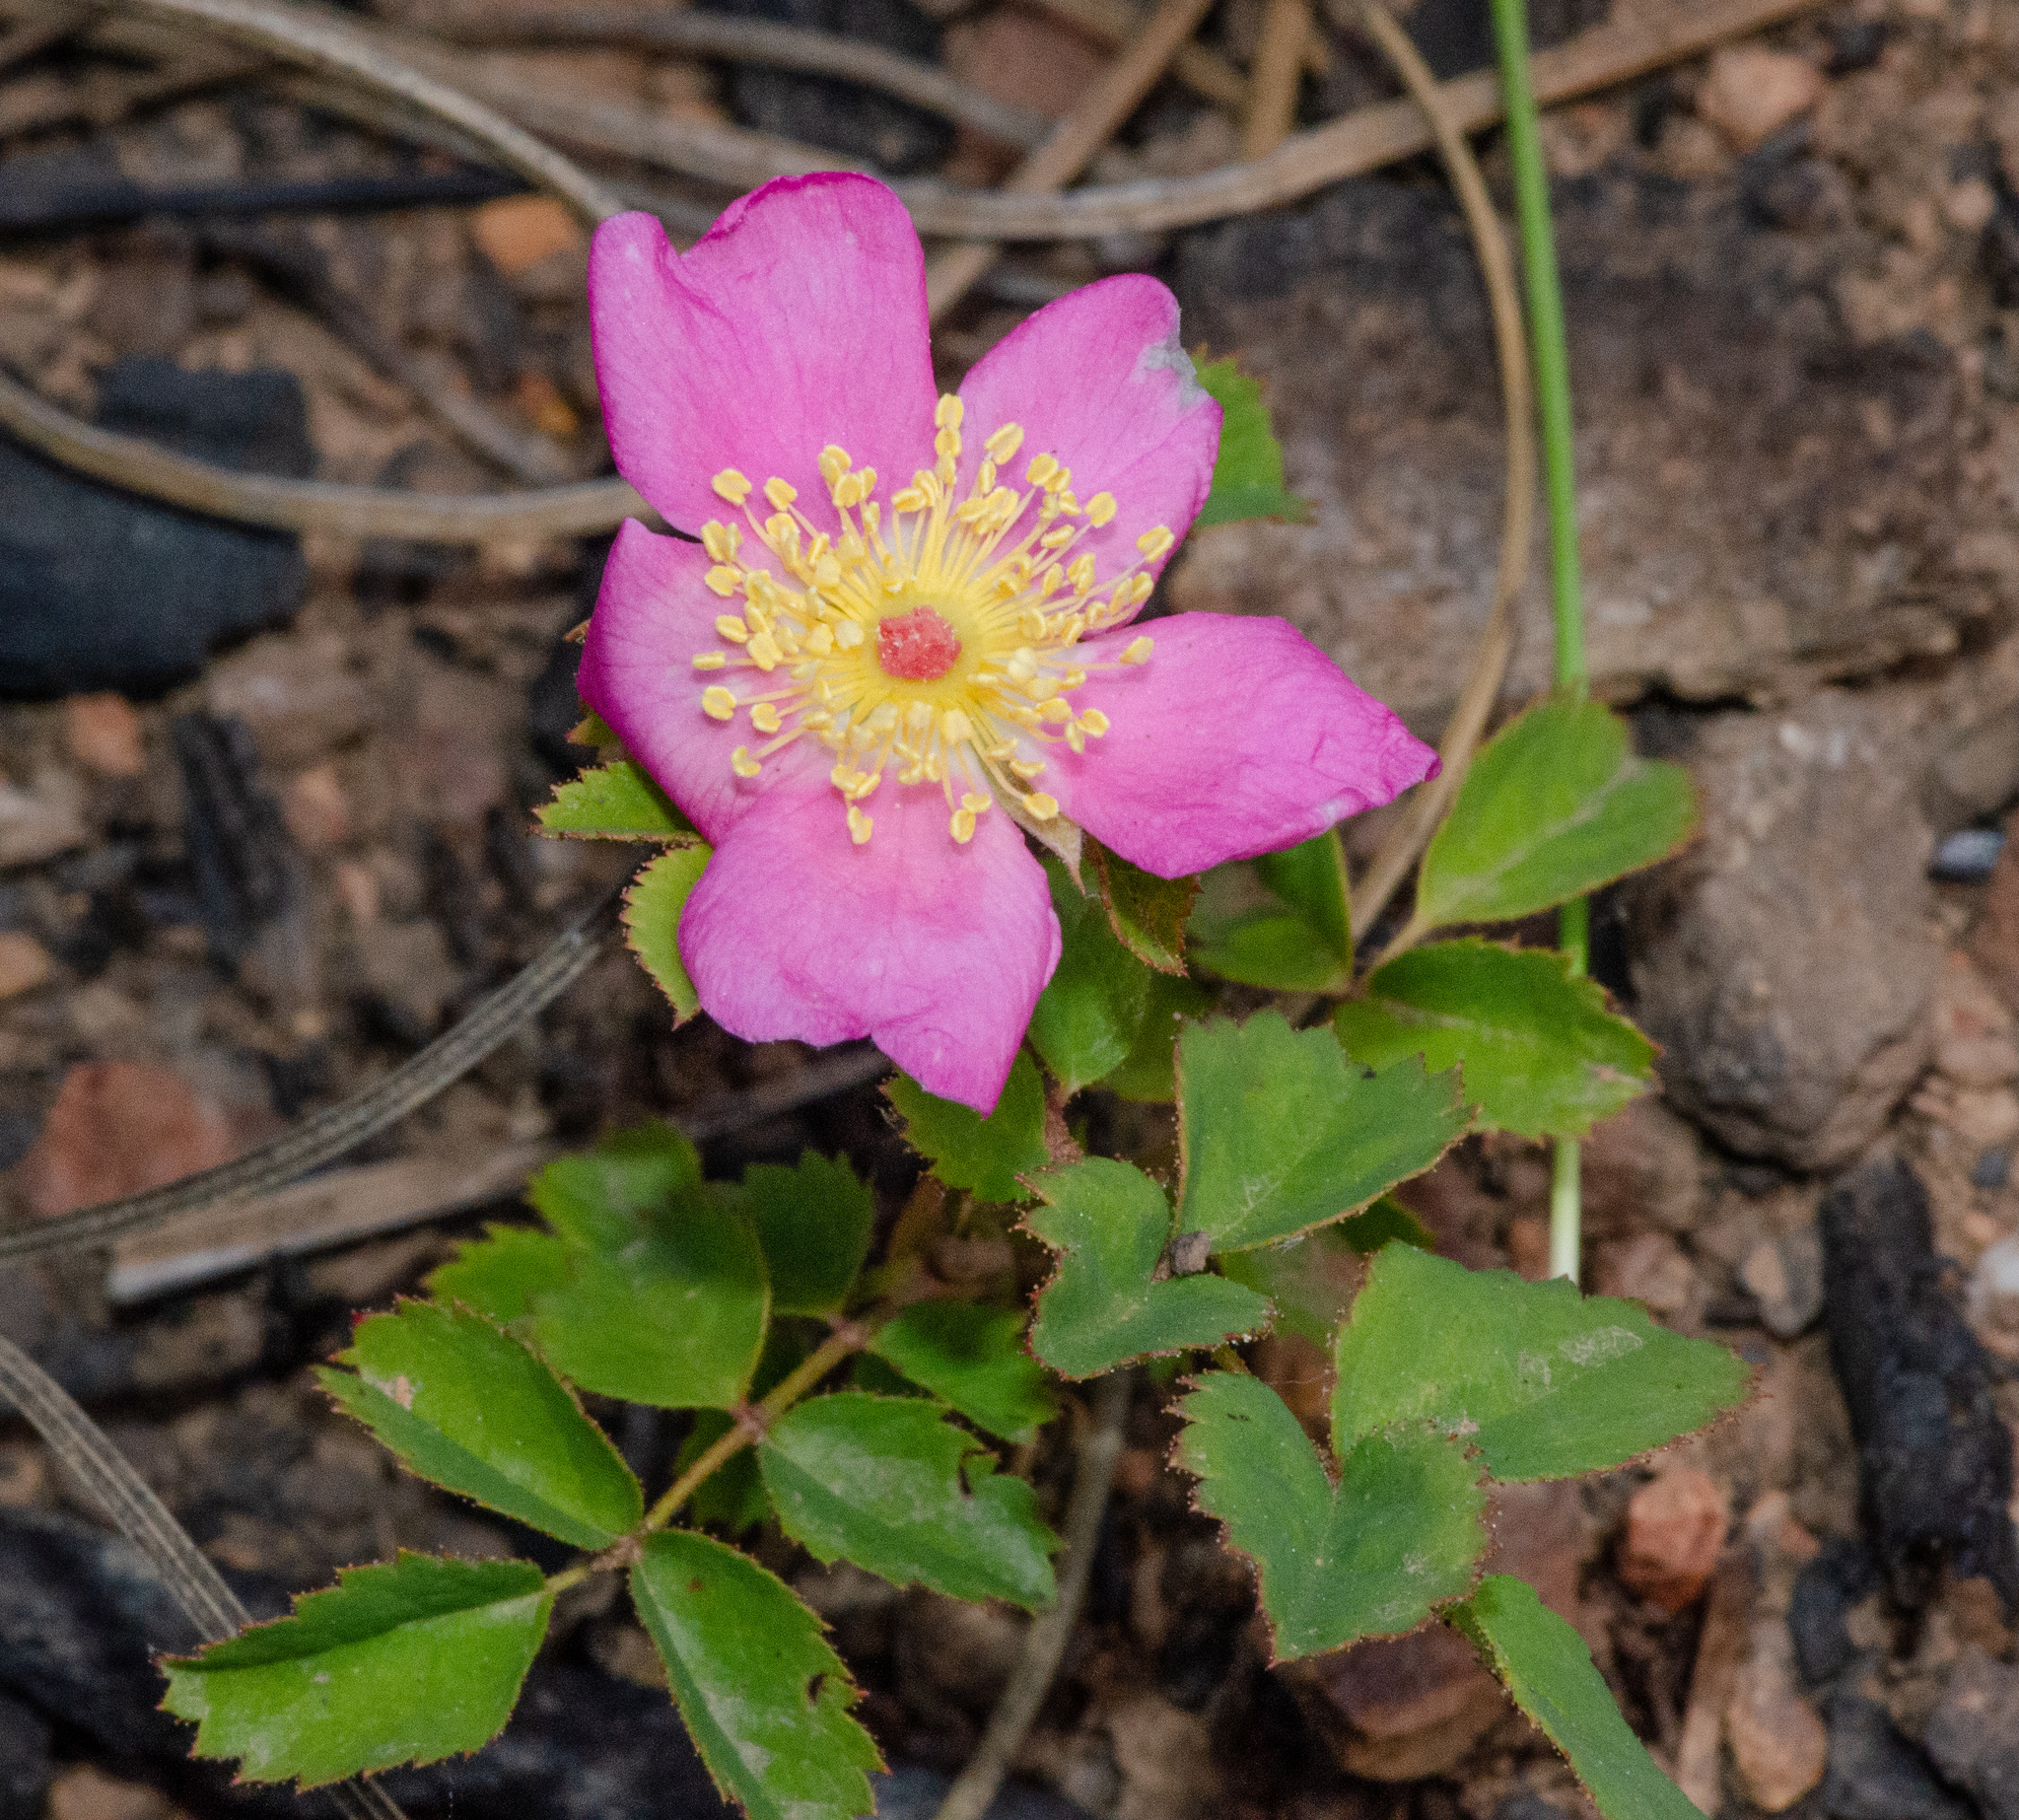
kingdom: Plantae
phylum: Tracheophyta
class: Magnoliopsida
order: Rosales
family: Rosaceae
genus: Rosa
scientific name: Rosa spithamea
